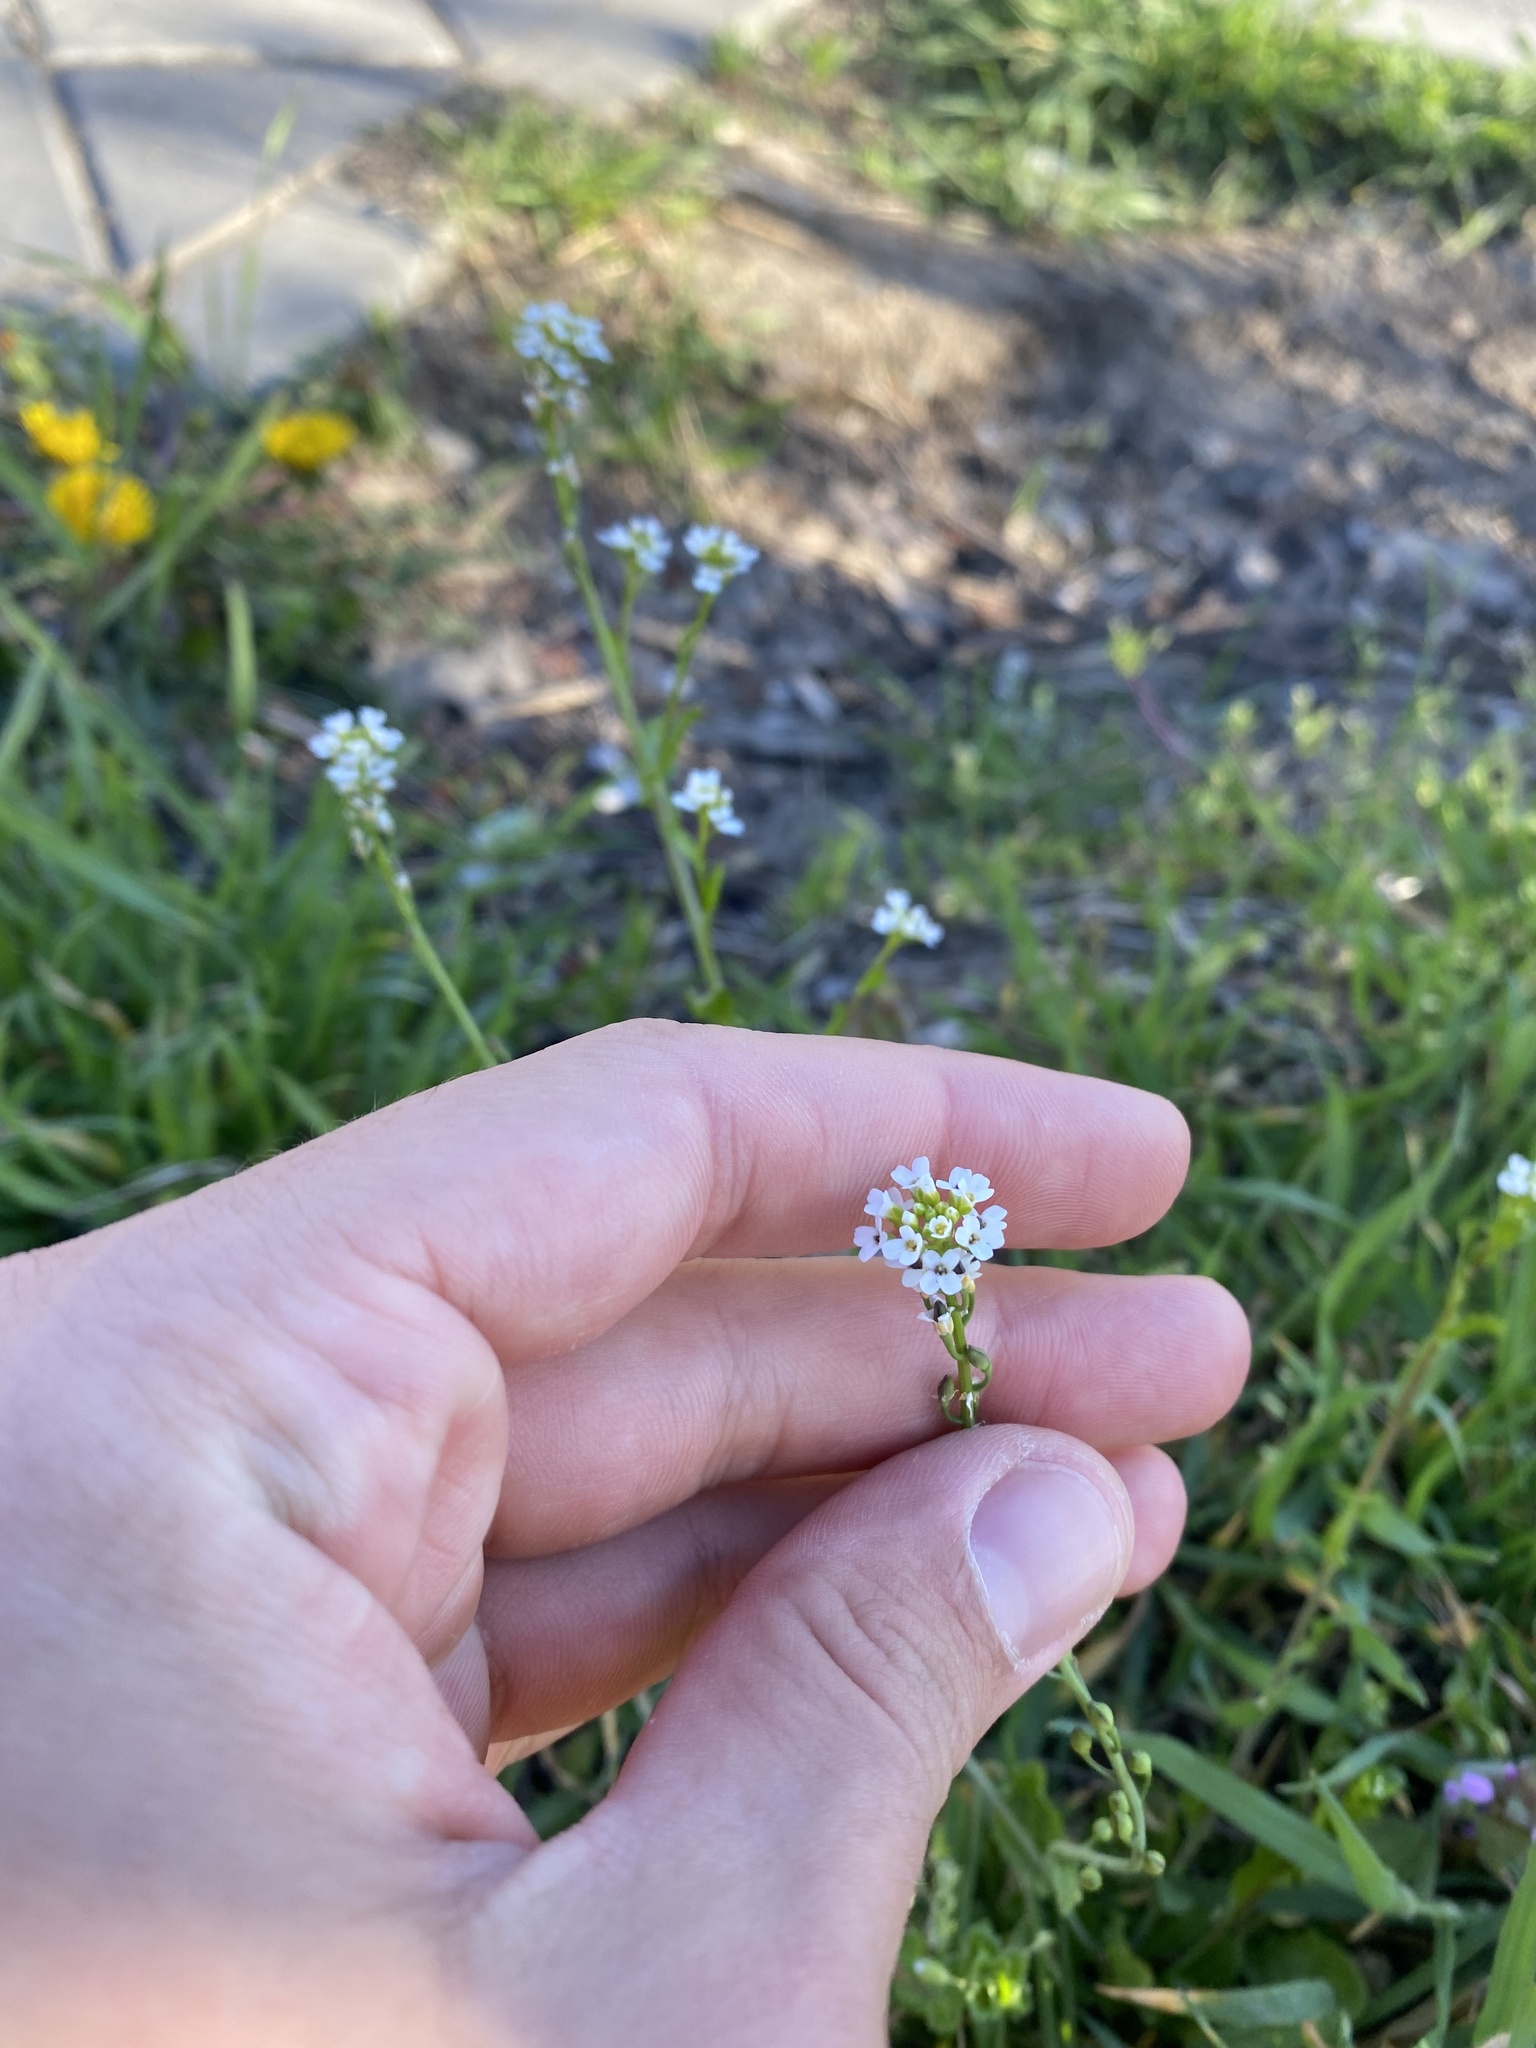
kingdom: Plantae
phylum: Tracheophyta
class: Magnoliopsida
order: Brassicales
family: Brassicaceae
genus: Calepina
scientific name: Calepina irregularis
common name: White ballmustard
